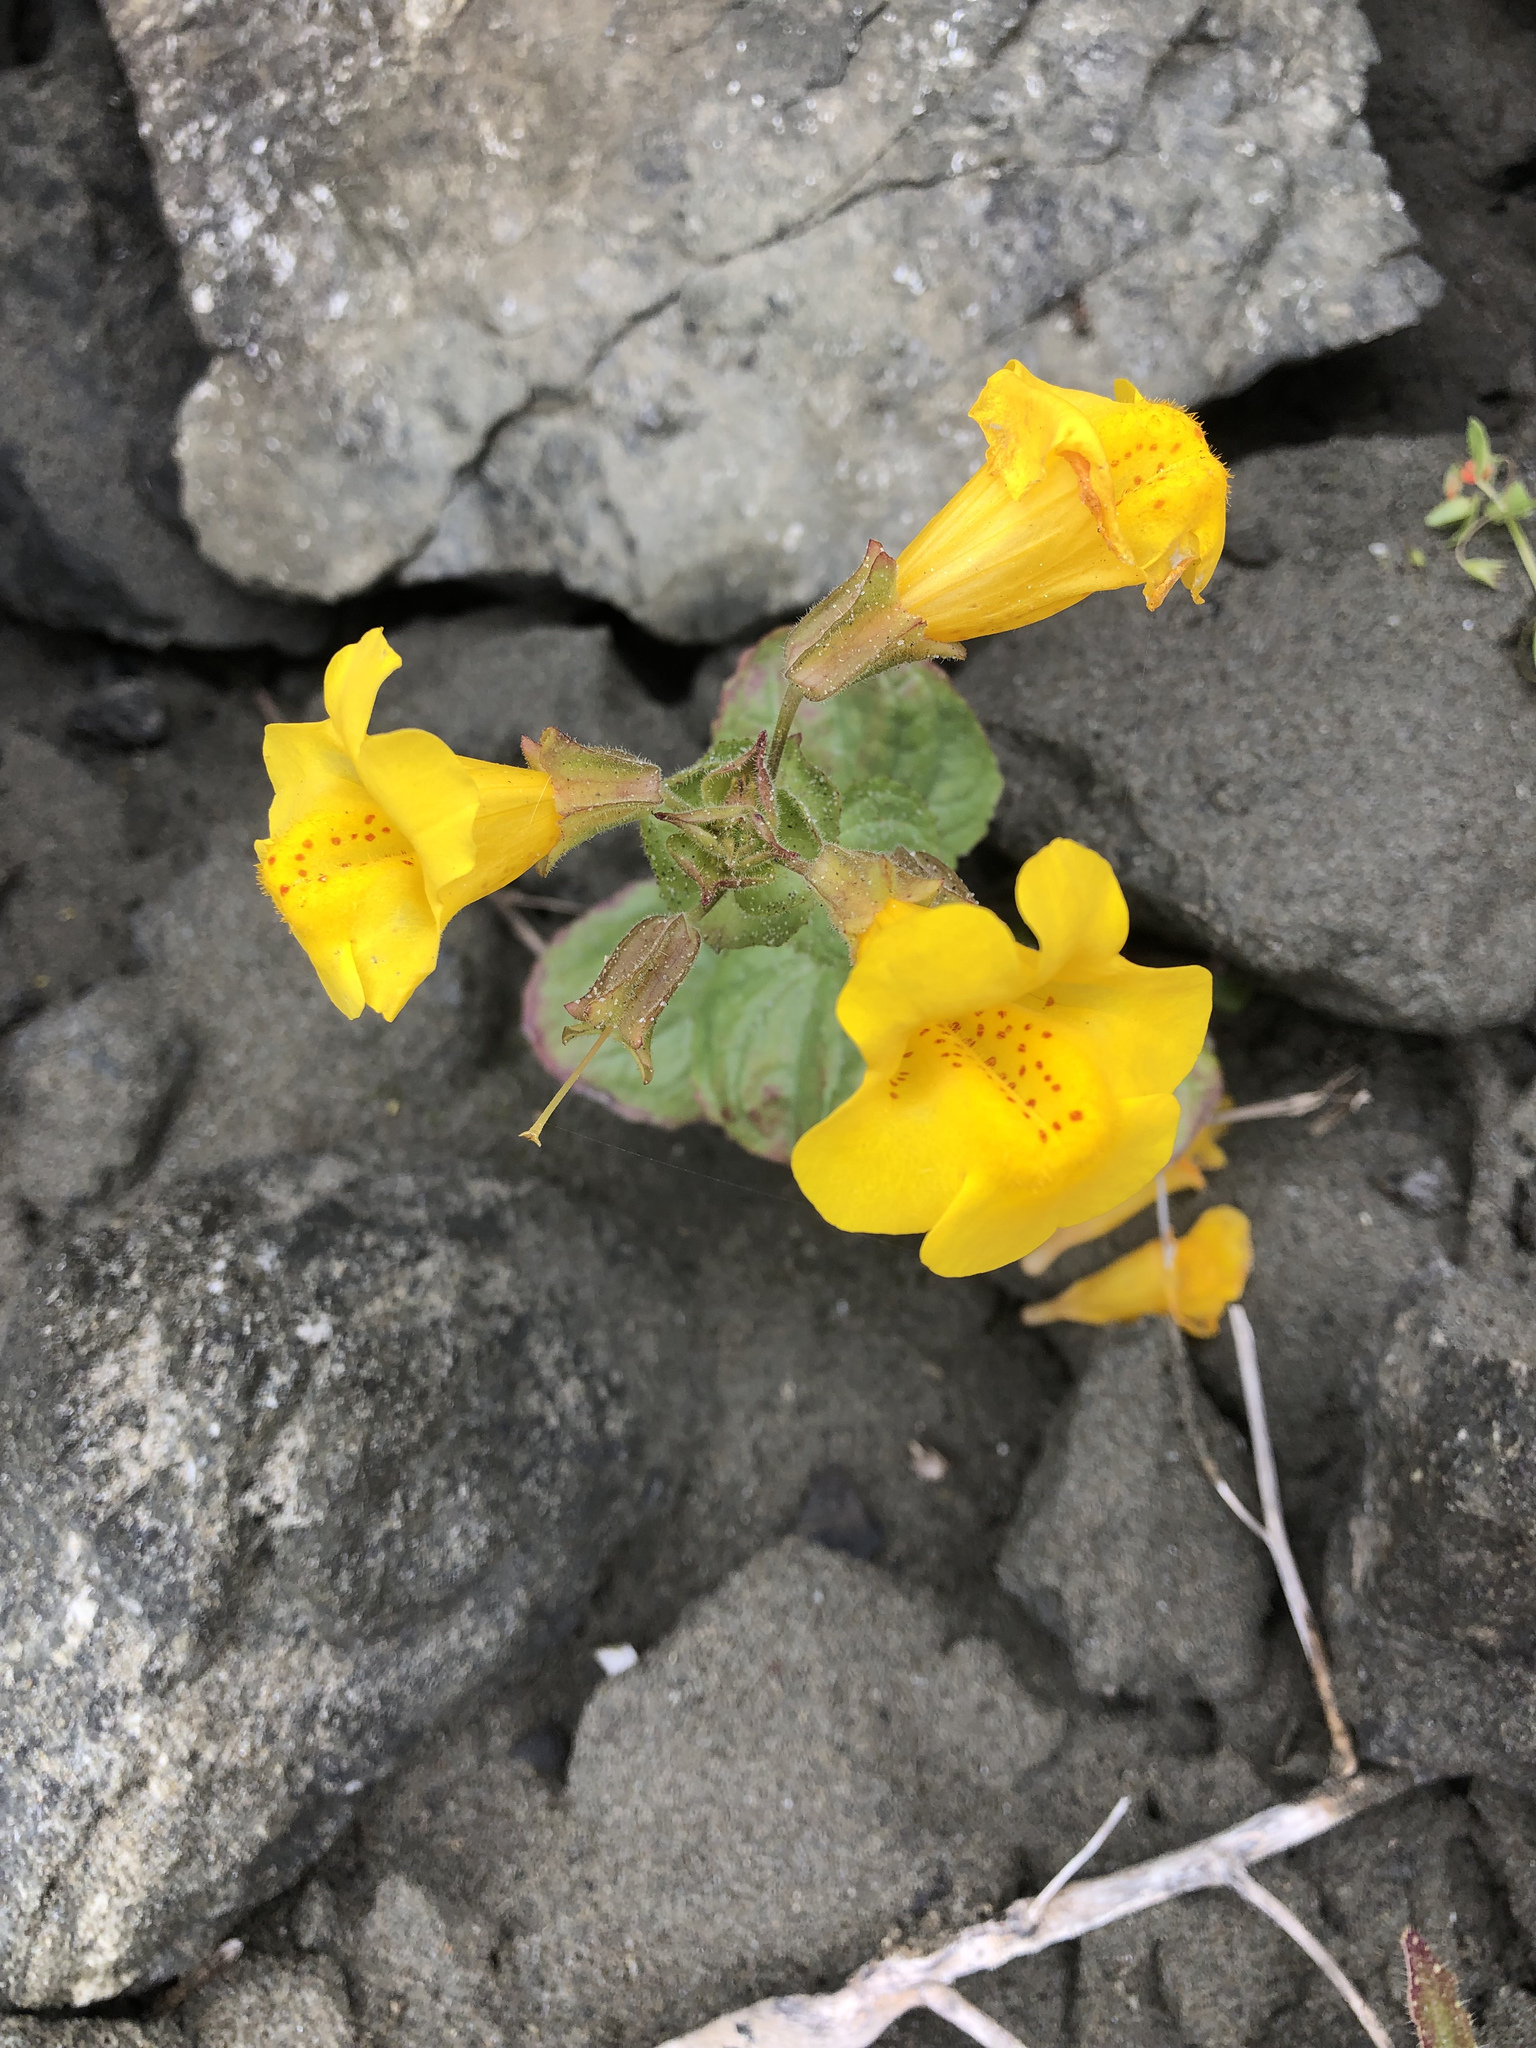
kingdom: Plantae
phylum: Tracheophyta
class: Magnoliopsida
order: Lamiales
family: Phrymaceae
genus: Erythranthe
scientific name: Erythranthe grandis
